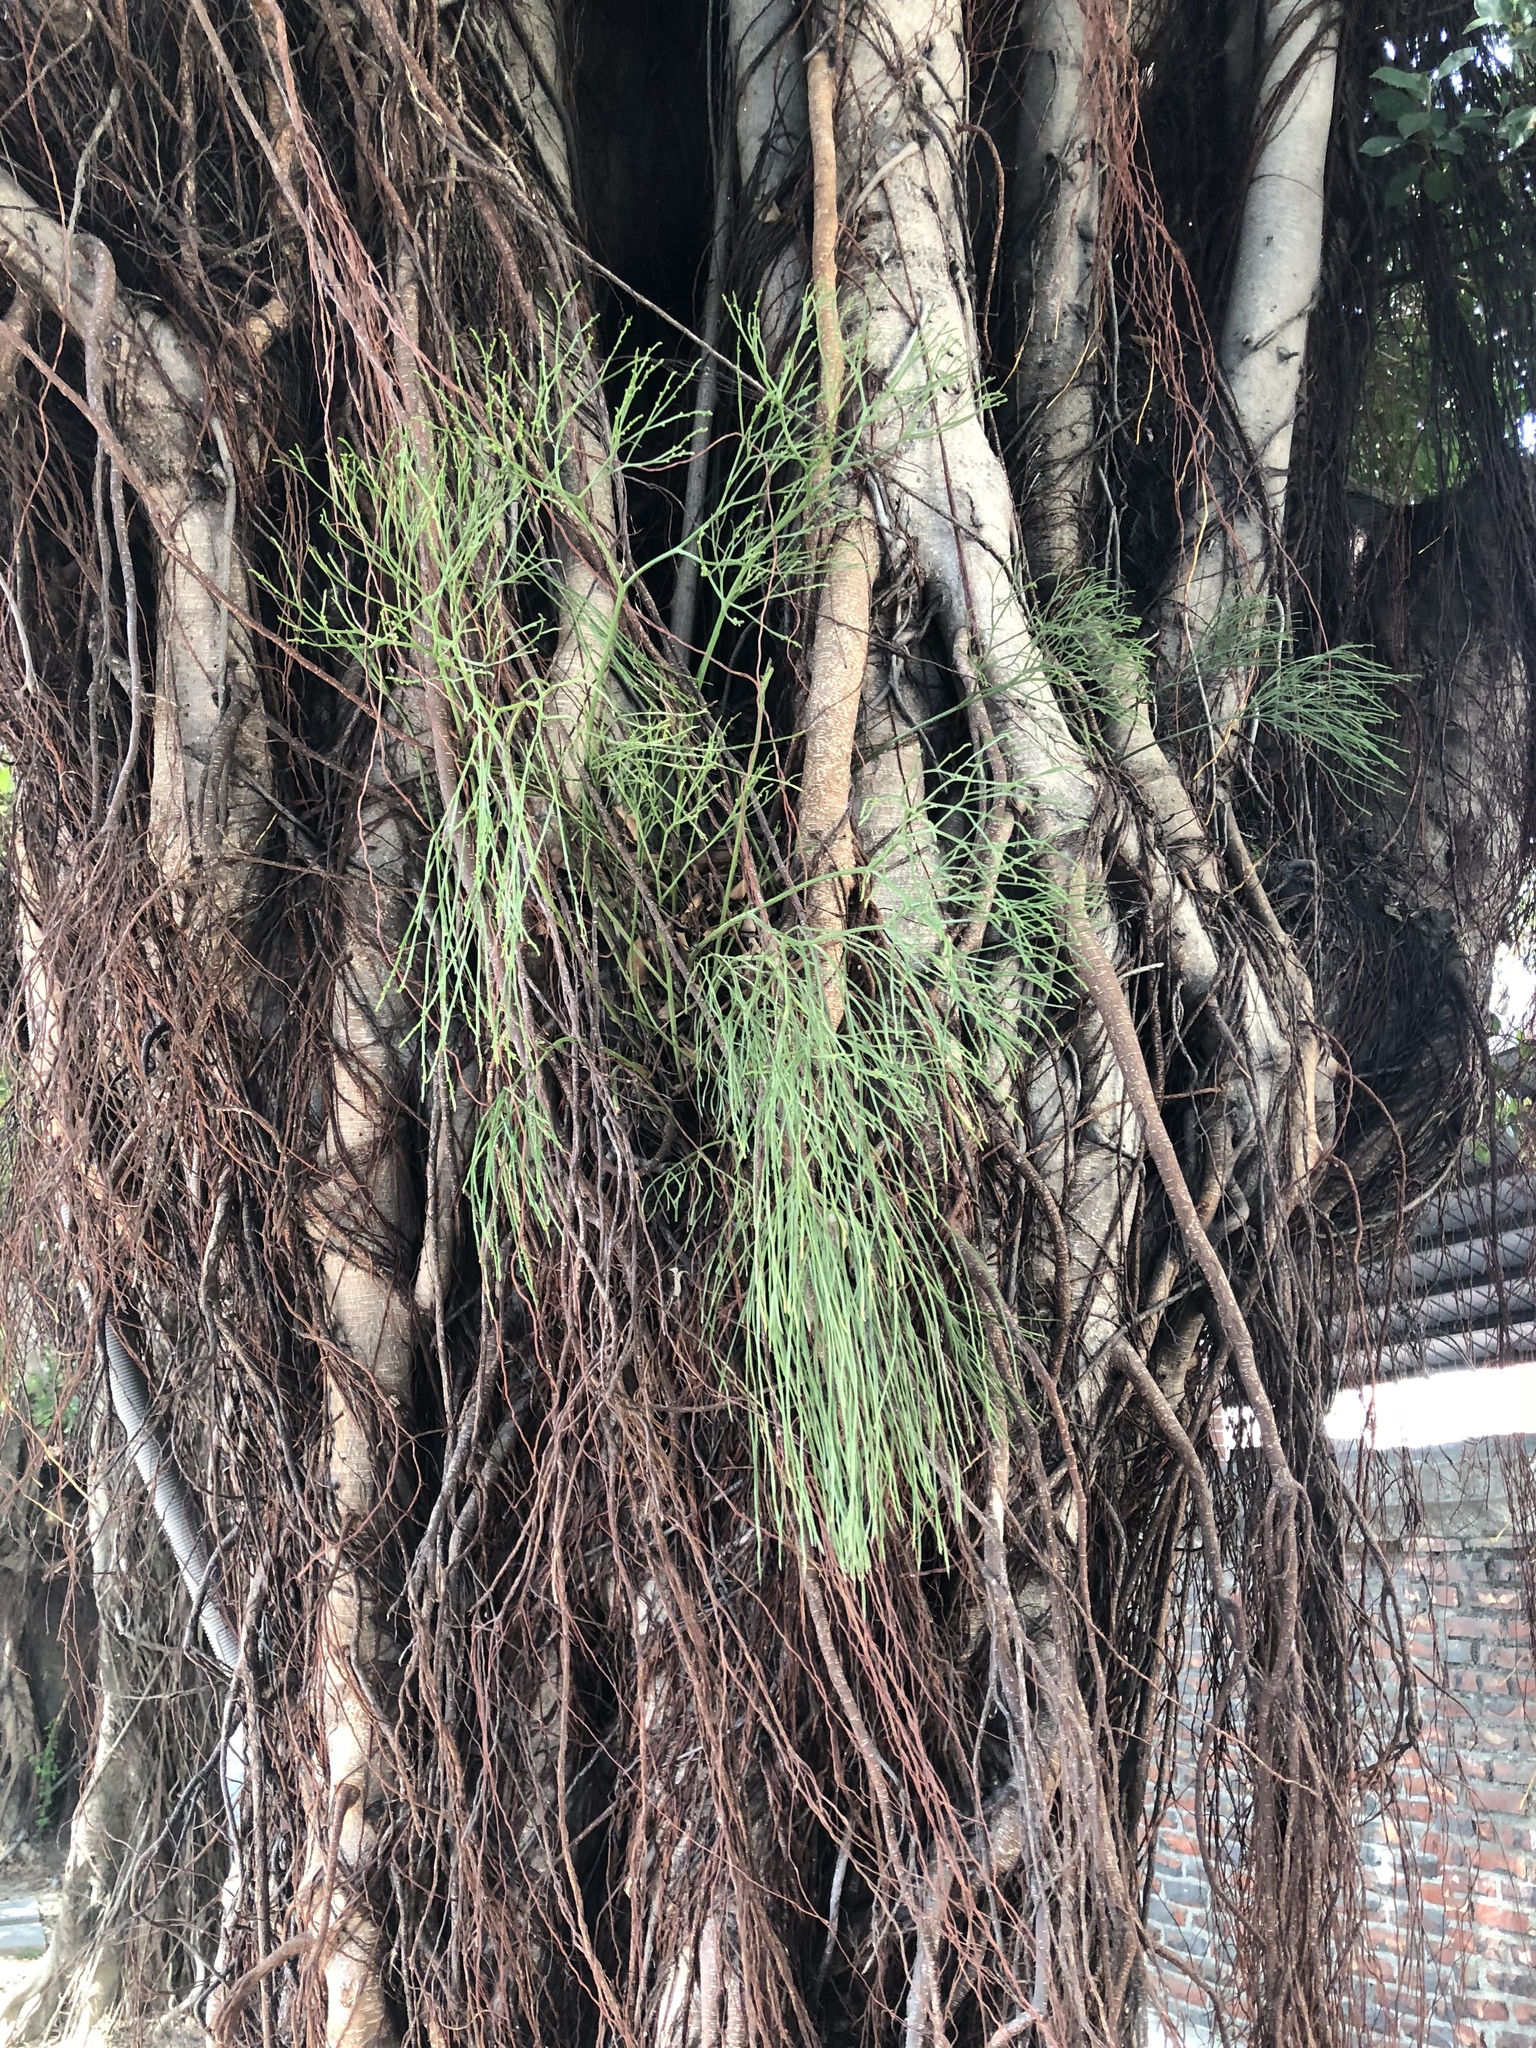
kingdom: Plantae
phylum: Tracheophyta
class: Polypodiopsida
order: Psilotales
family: Psilotaceae
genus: Psilotum
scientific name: Psilotum nudum
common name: Skeleton fork fern
